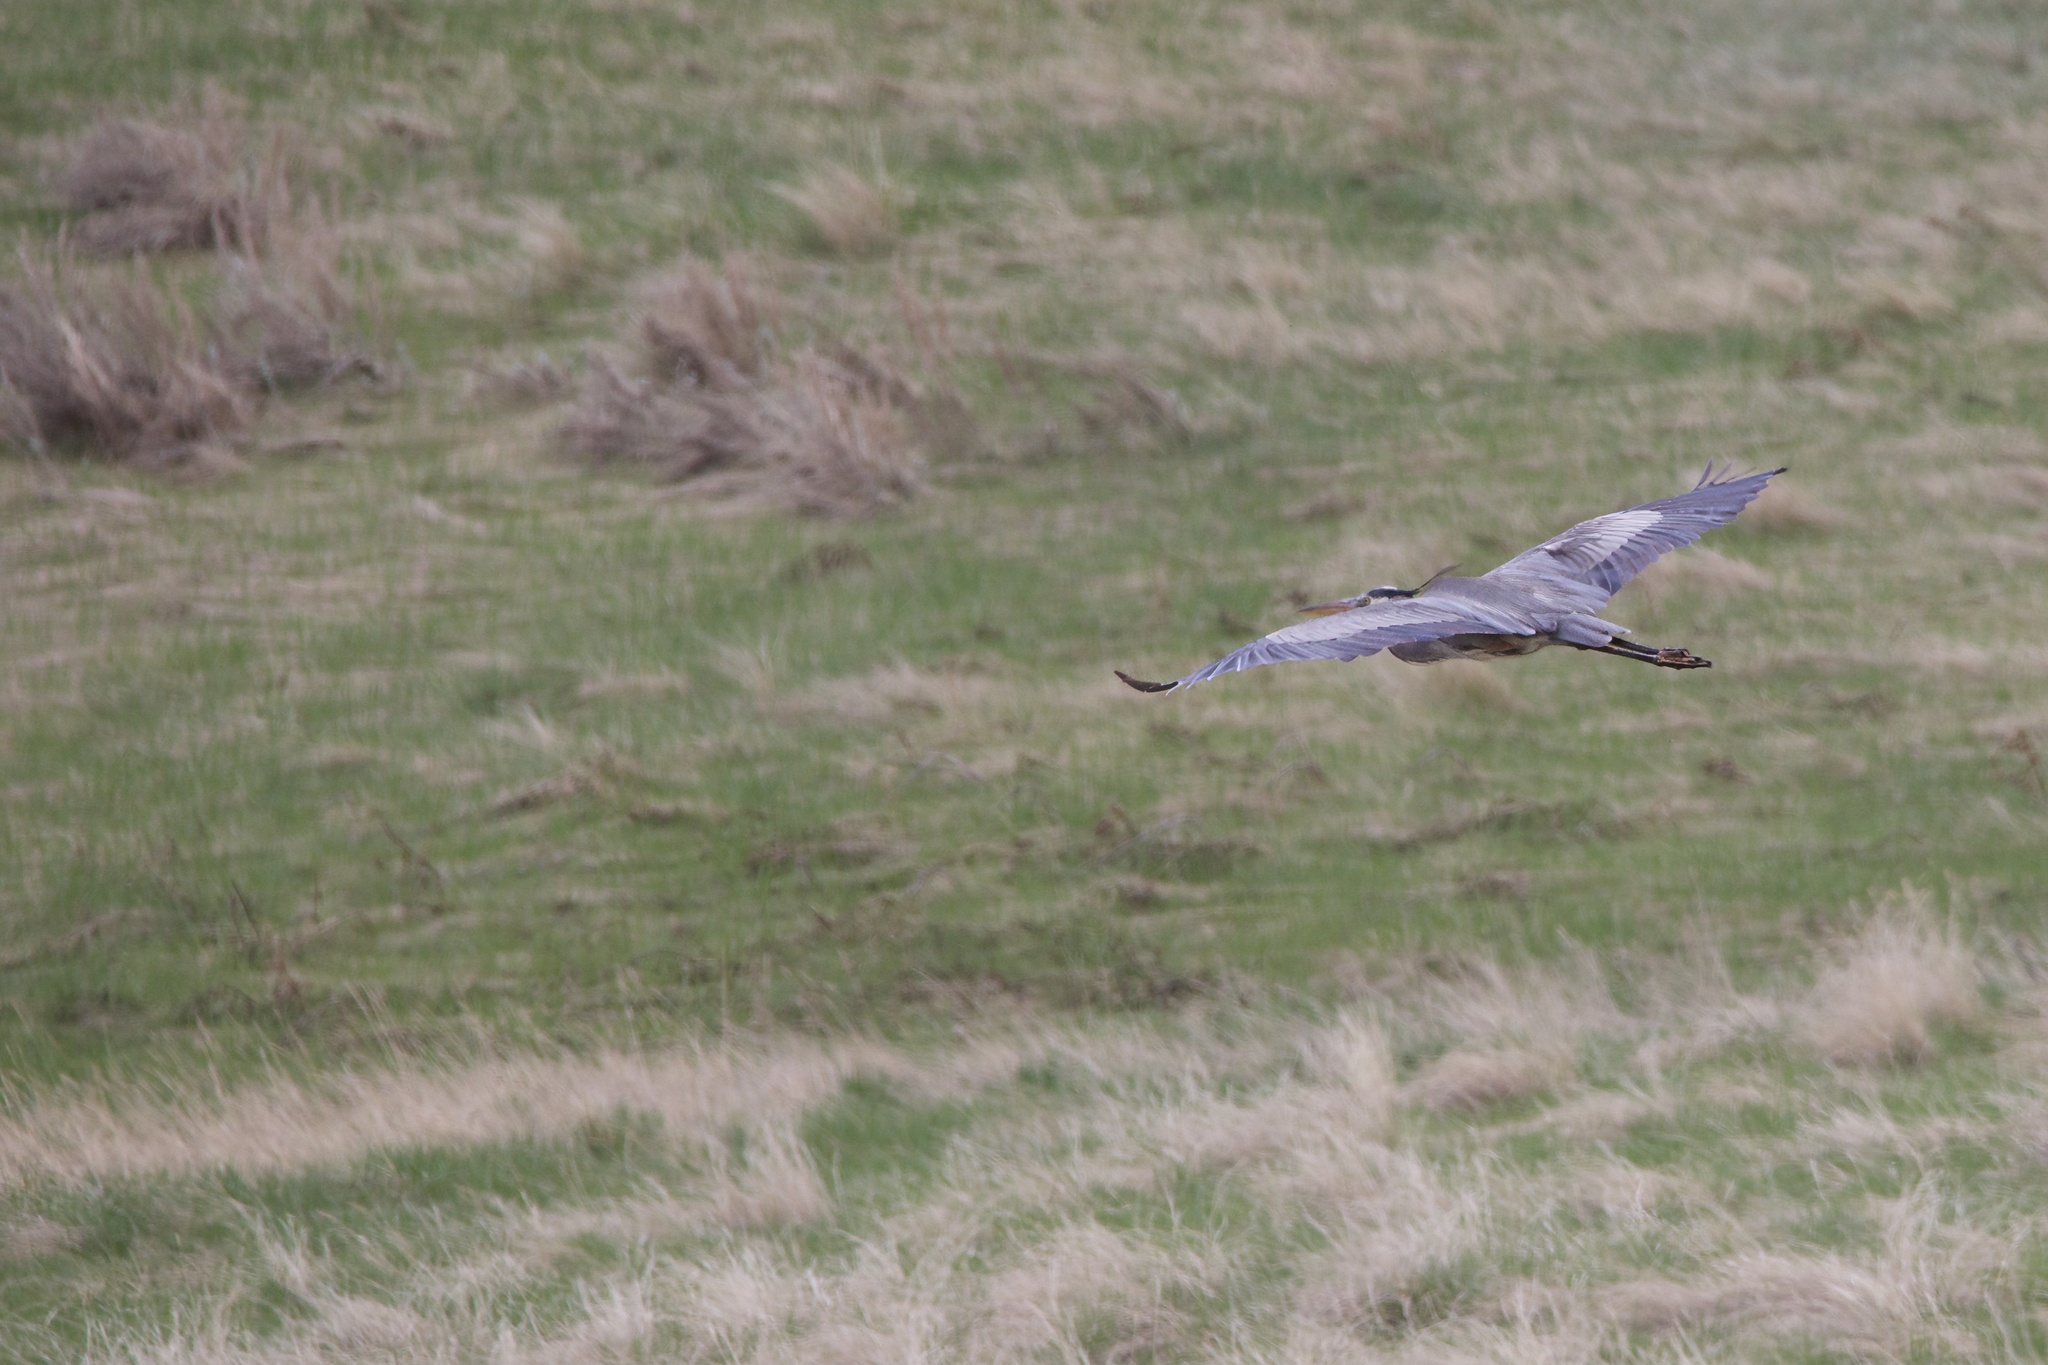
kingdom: Animalia
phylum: Chordata
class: Aves
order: Pelecaniformes
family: Ardeidae
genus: Ardea
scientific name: Ardea herodias
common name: Great blue heron
